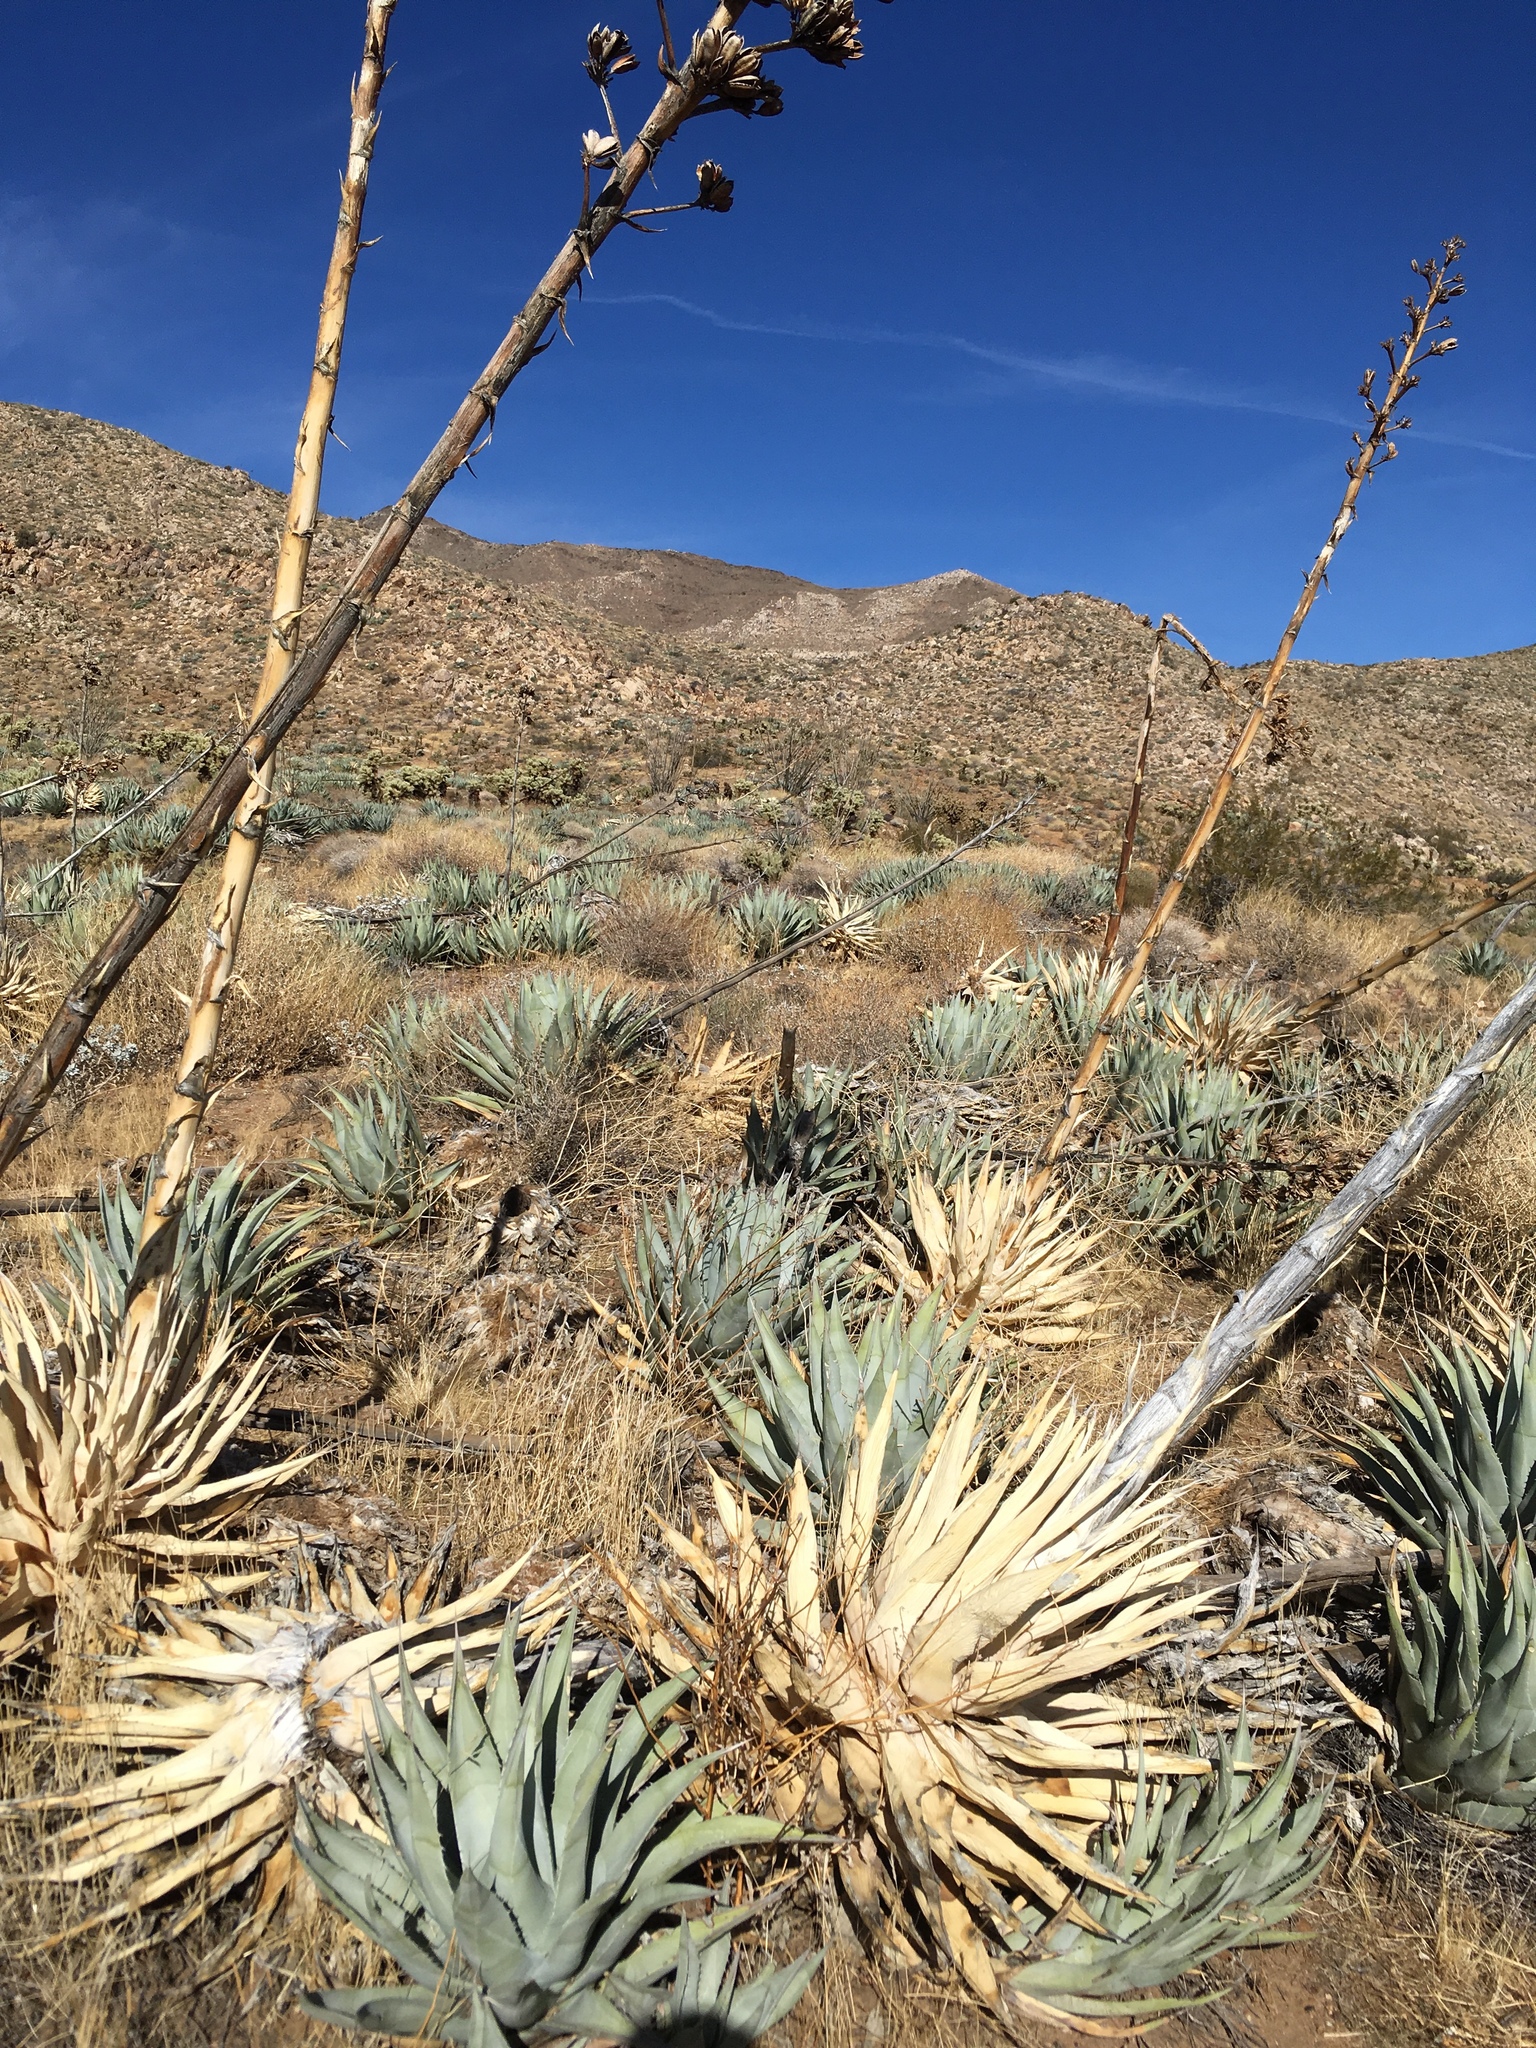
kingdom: Plantae
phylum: Tracheophyta
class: Liliopsida
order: Asparagales
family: Asparagaceae
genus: Agave
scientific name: Agave deserti
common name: Desert agave
